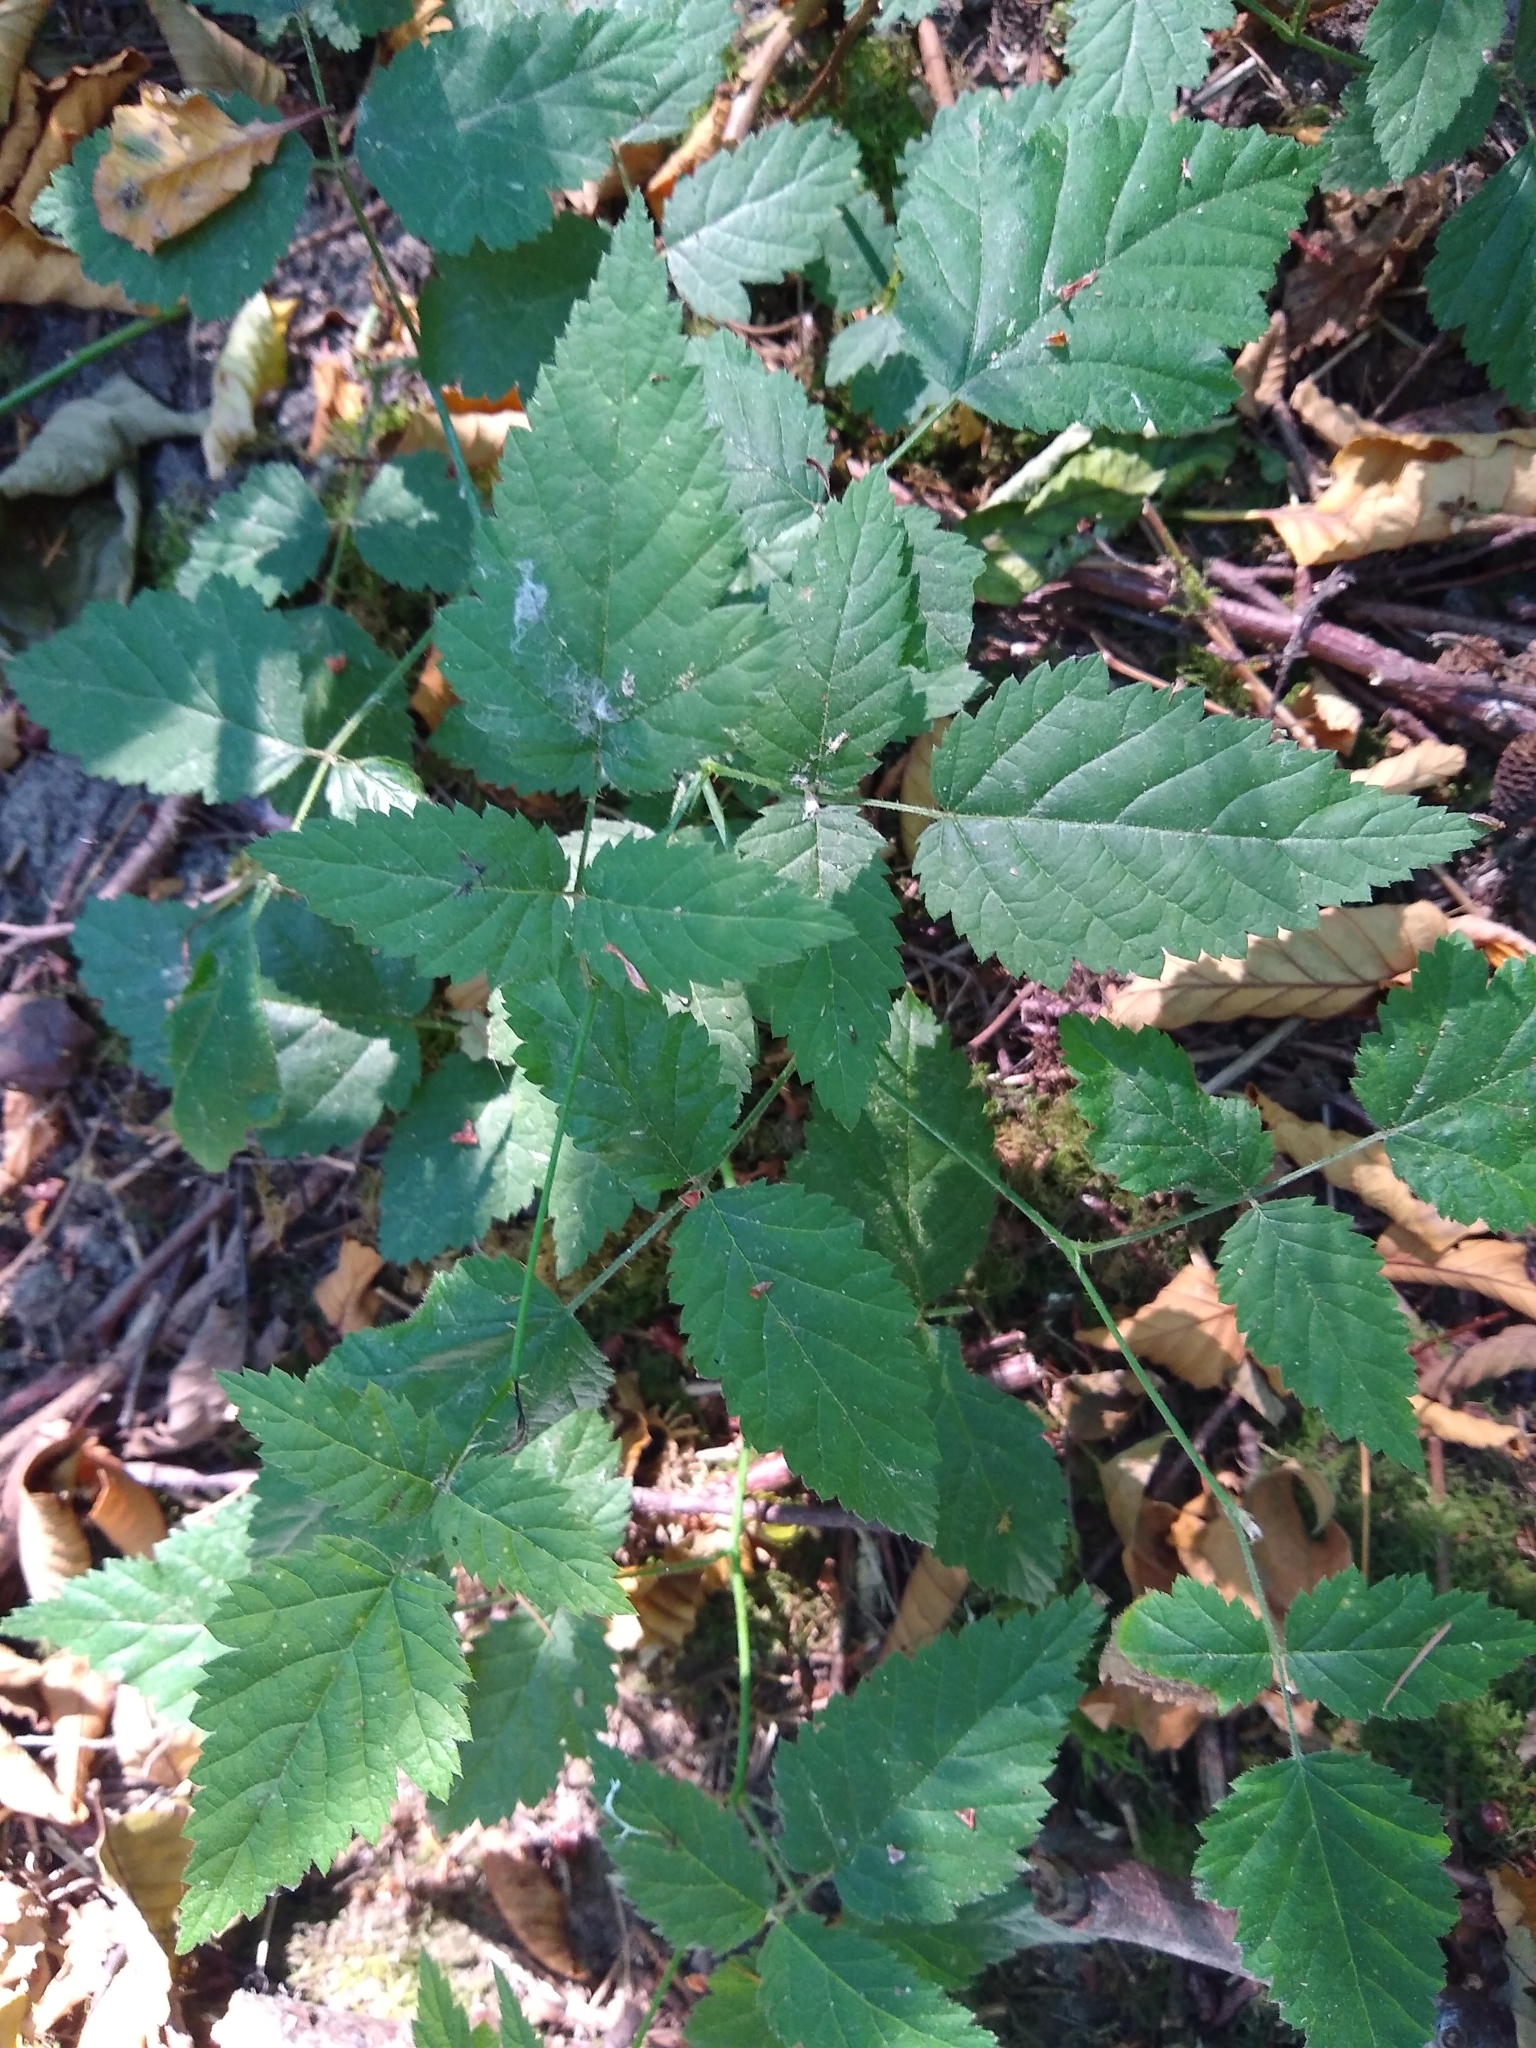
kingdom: Plantae
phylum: Tracheophyta
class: Magnoliopsida
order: Rosales
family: Rosaceae
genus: Rubus
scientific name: Rubus ursinus
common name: Pacific blackberry
